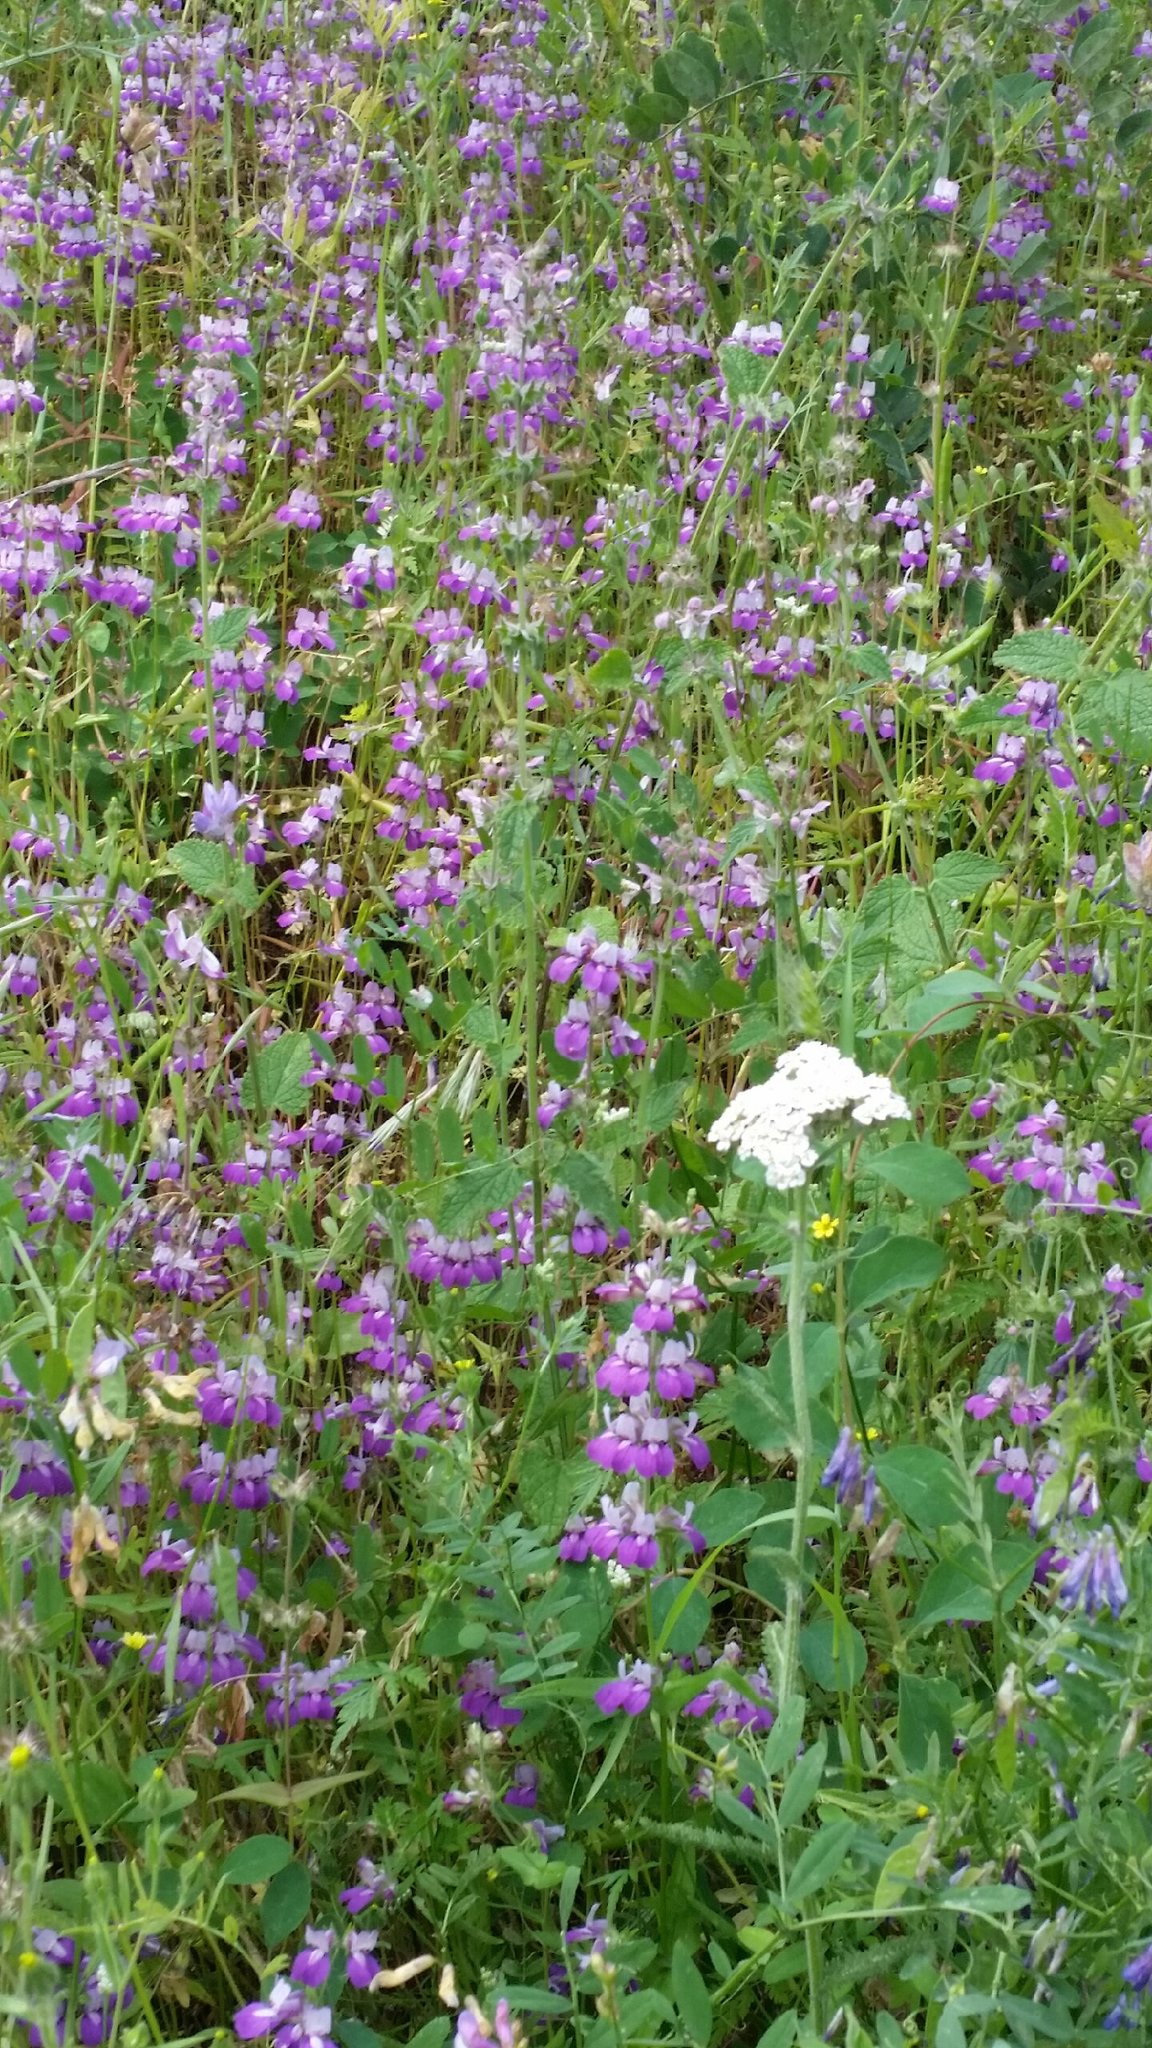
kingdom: Plantae
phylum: Tracheophyta
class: Magnoliopsida
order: Lamiales
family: Plantaginaceae
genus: Collinsia
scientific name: Collinsia heterophylla
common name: Chinese-houses
